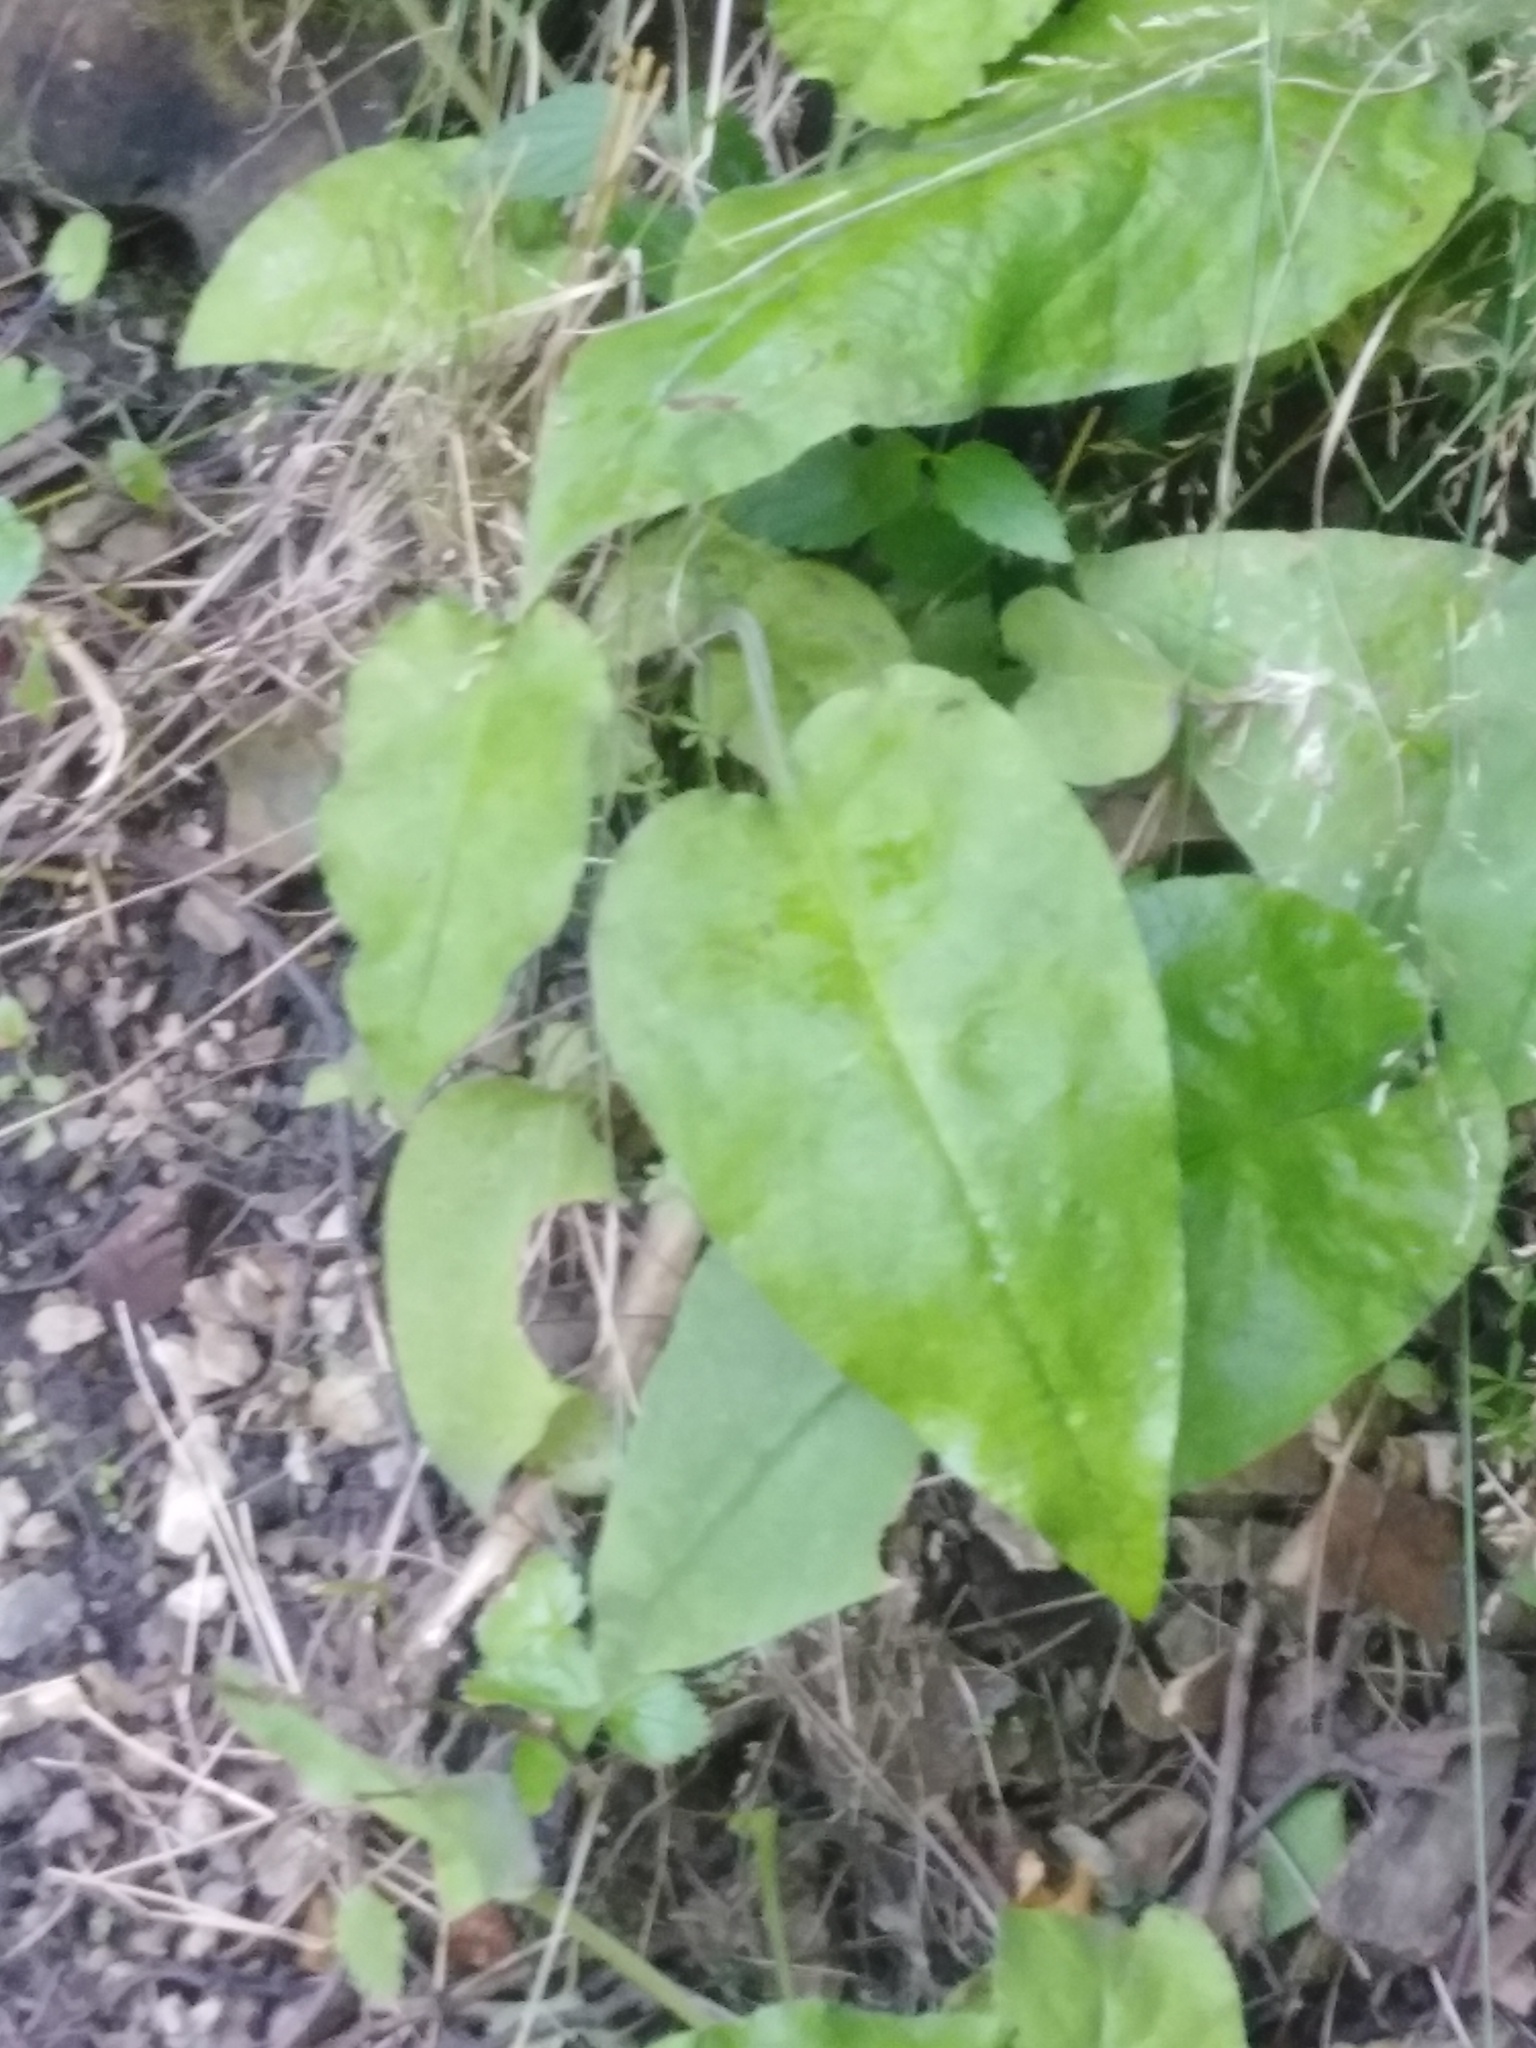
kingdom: Plantae
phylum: Tracheophyta
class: Magnoliopsida
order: Boraginales
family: Boraginaceae
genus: Pulmonaria
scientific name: Pulmonaria obscura
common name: Suffolk lungwort
